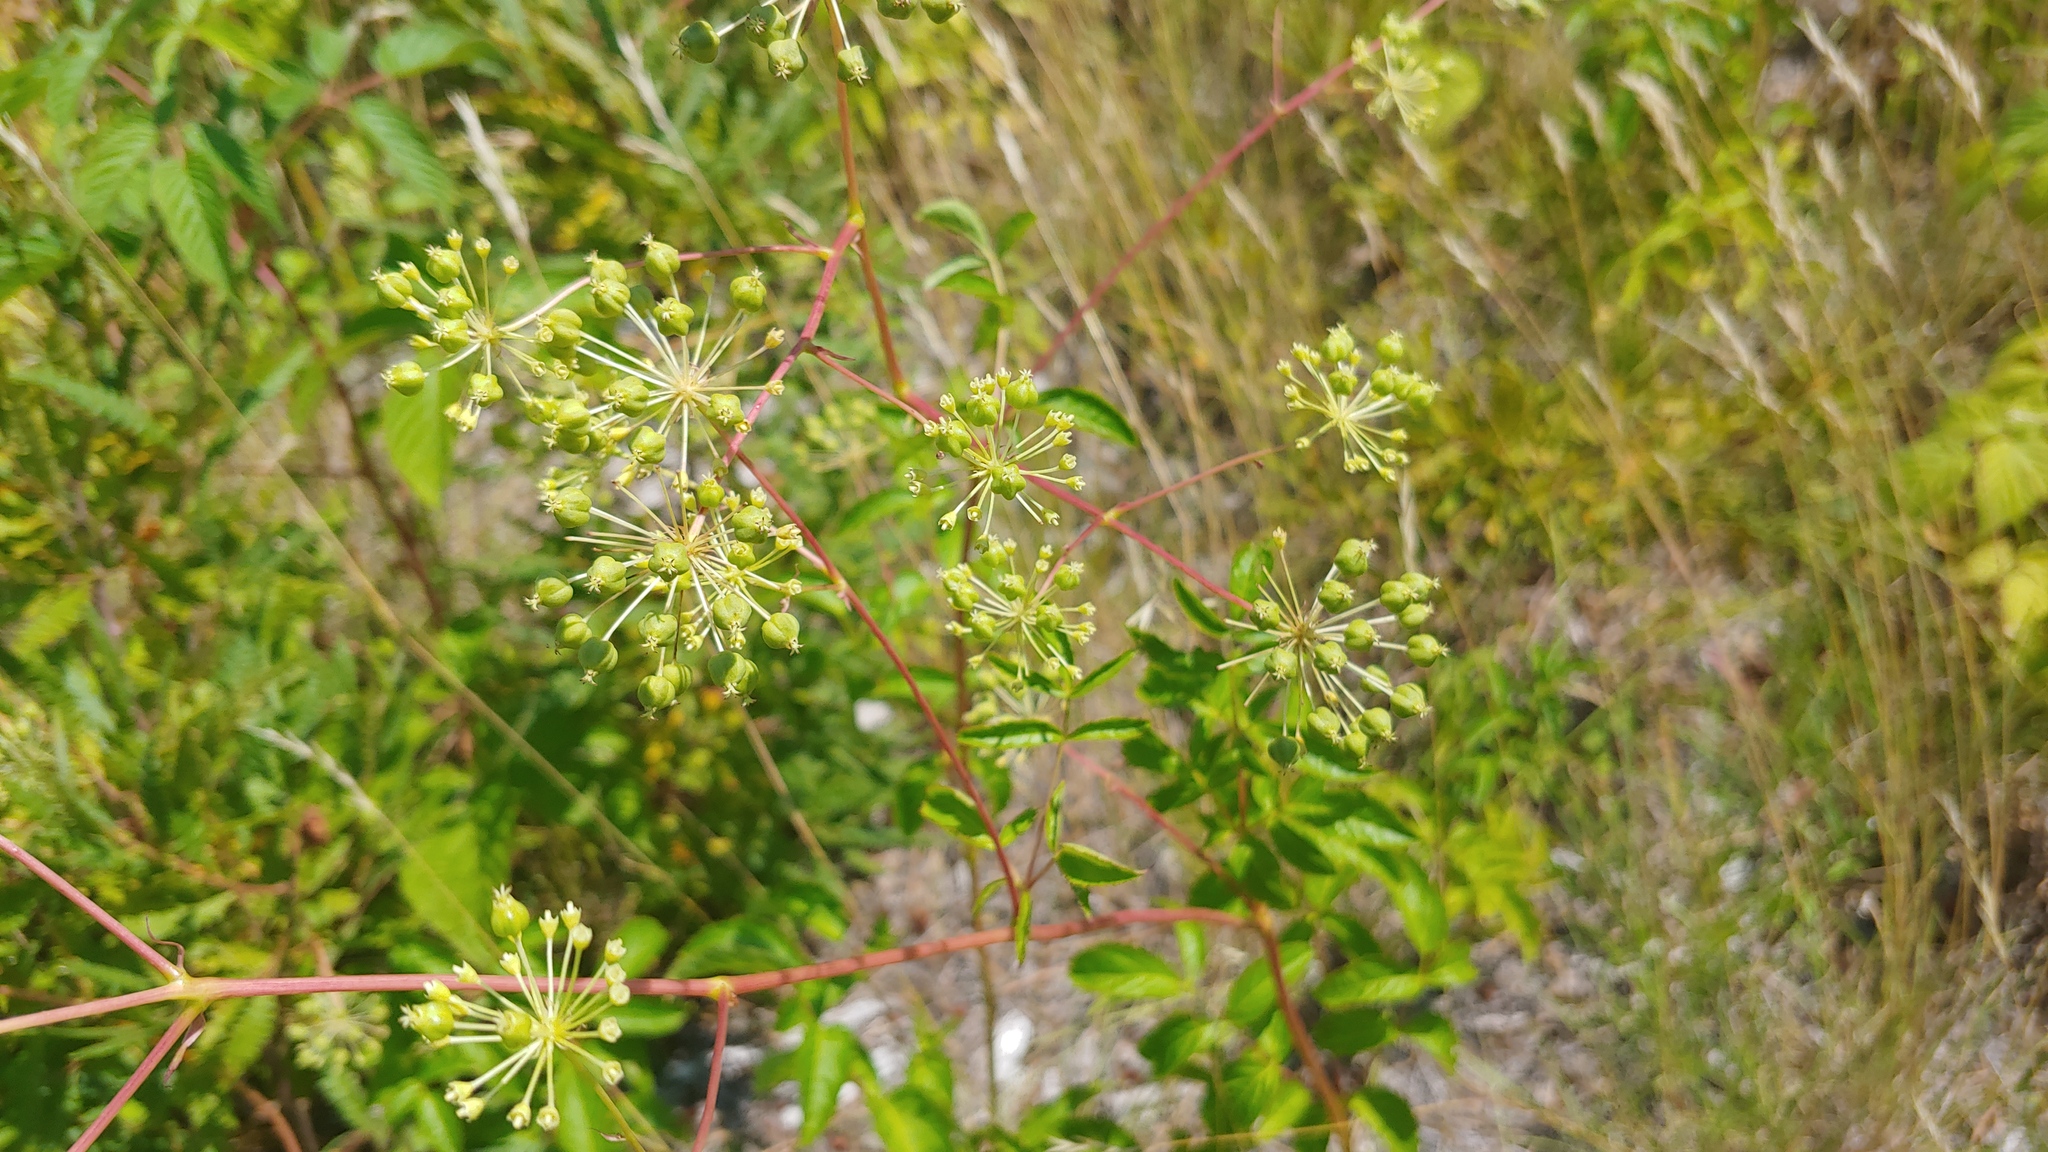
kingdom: Plantae
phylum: Tracheophyta
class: Magnoliopsida
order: Apiales
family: Araliaceae
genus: Aralia
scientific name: Aralia hispida
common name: Bristly sarsaparilla
